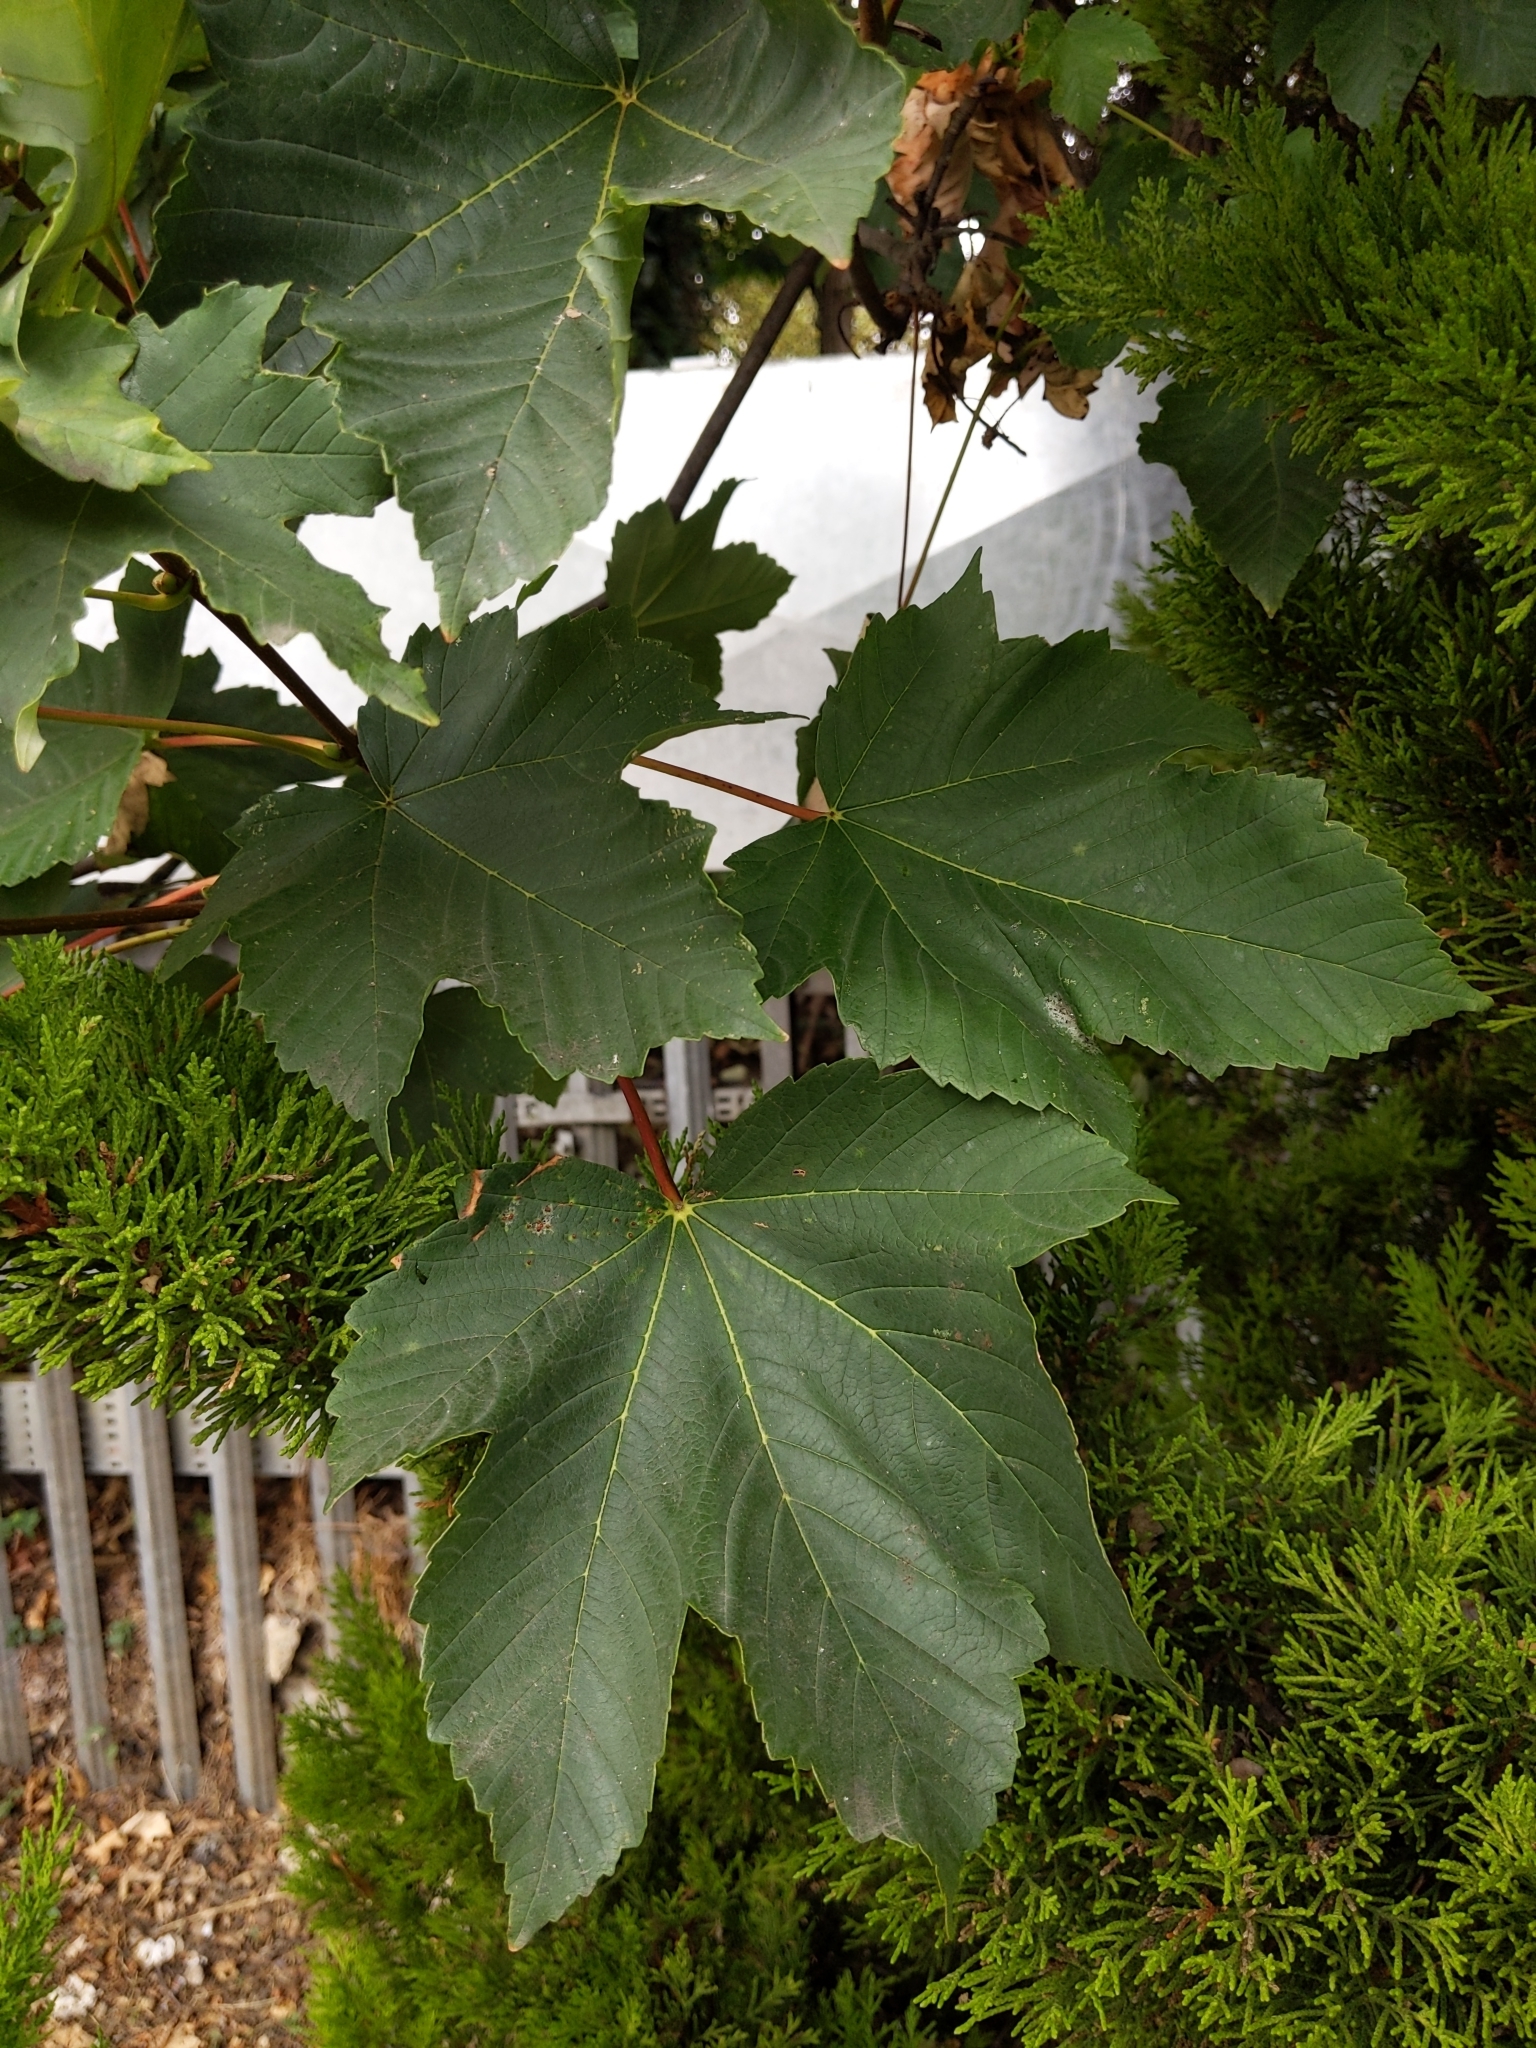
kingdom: Plantae
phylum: Tracheophyta
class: Magnoliopsida
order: Sapindales
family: Sapindaceae
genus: Acer
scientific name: Acer pseudoplatanus
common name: Sycamore
